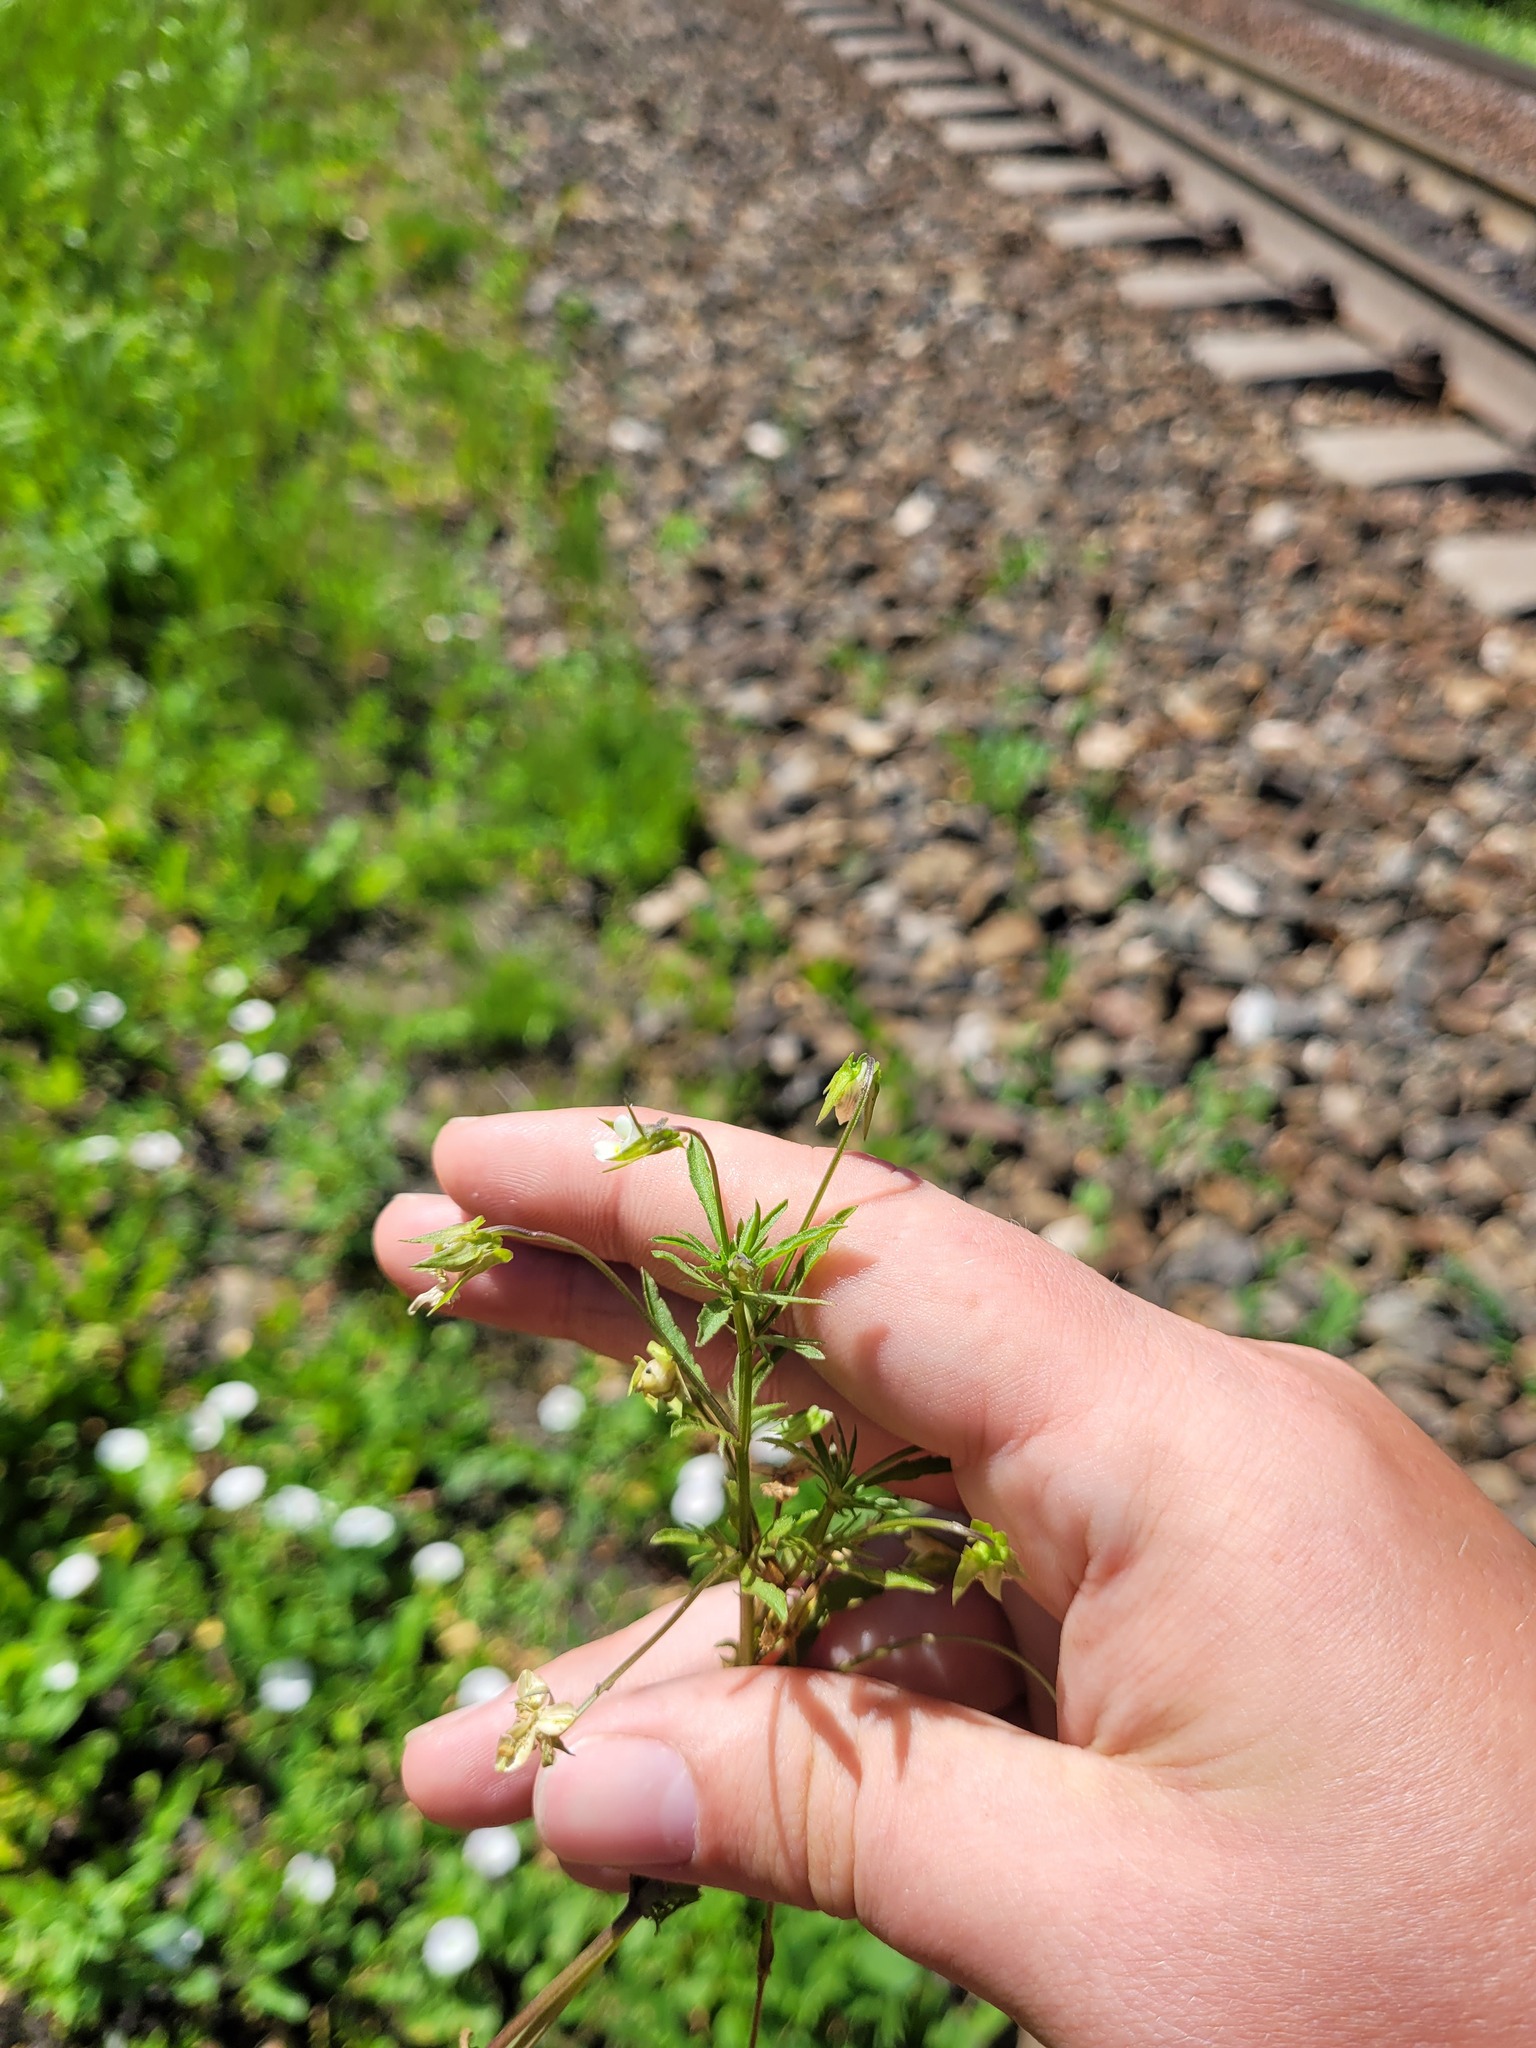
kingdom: Plantae
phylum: Tracheophyta
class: Magnoliopsida
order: Malpighiales
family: Violaceae
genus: Viola
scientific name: Viola arvensis
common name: Field pansy
